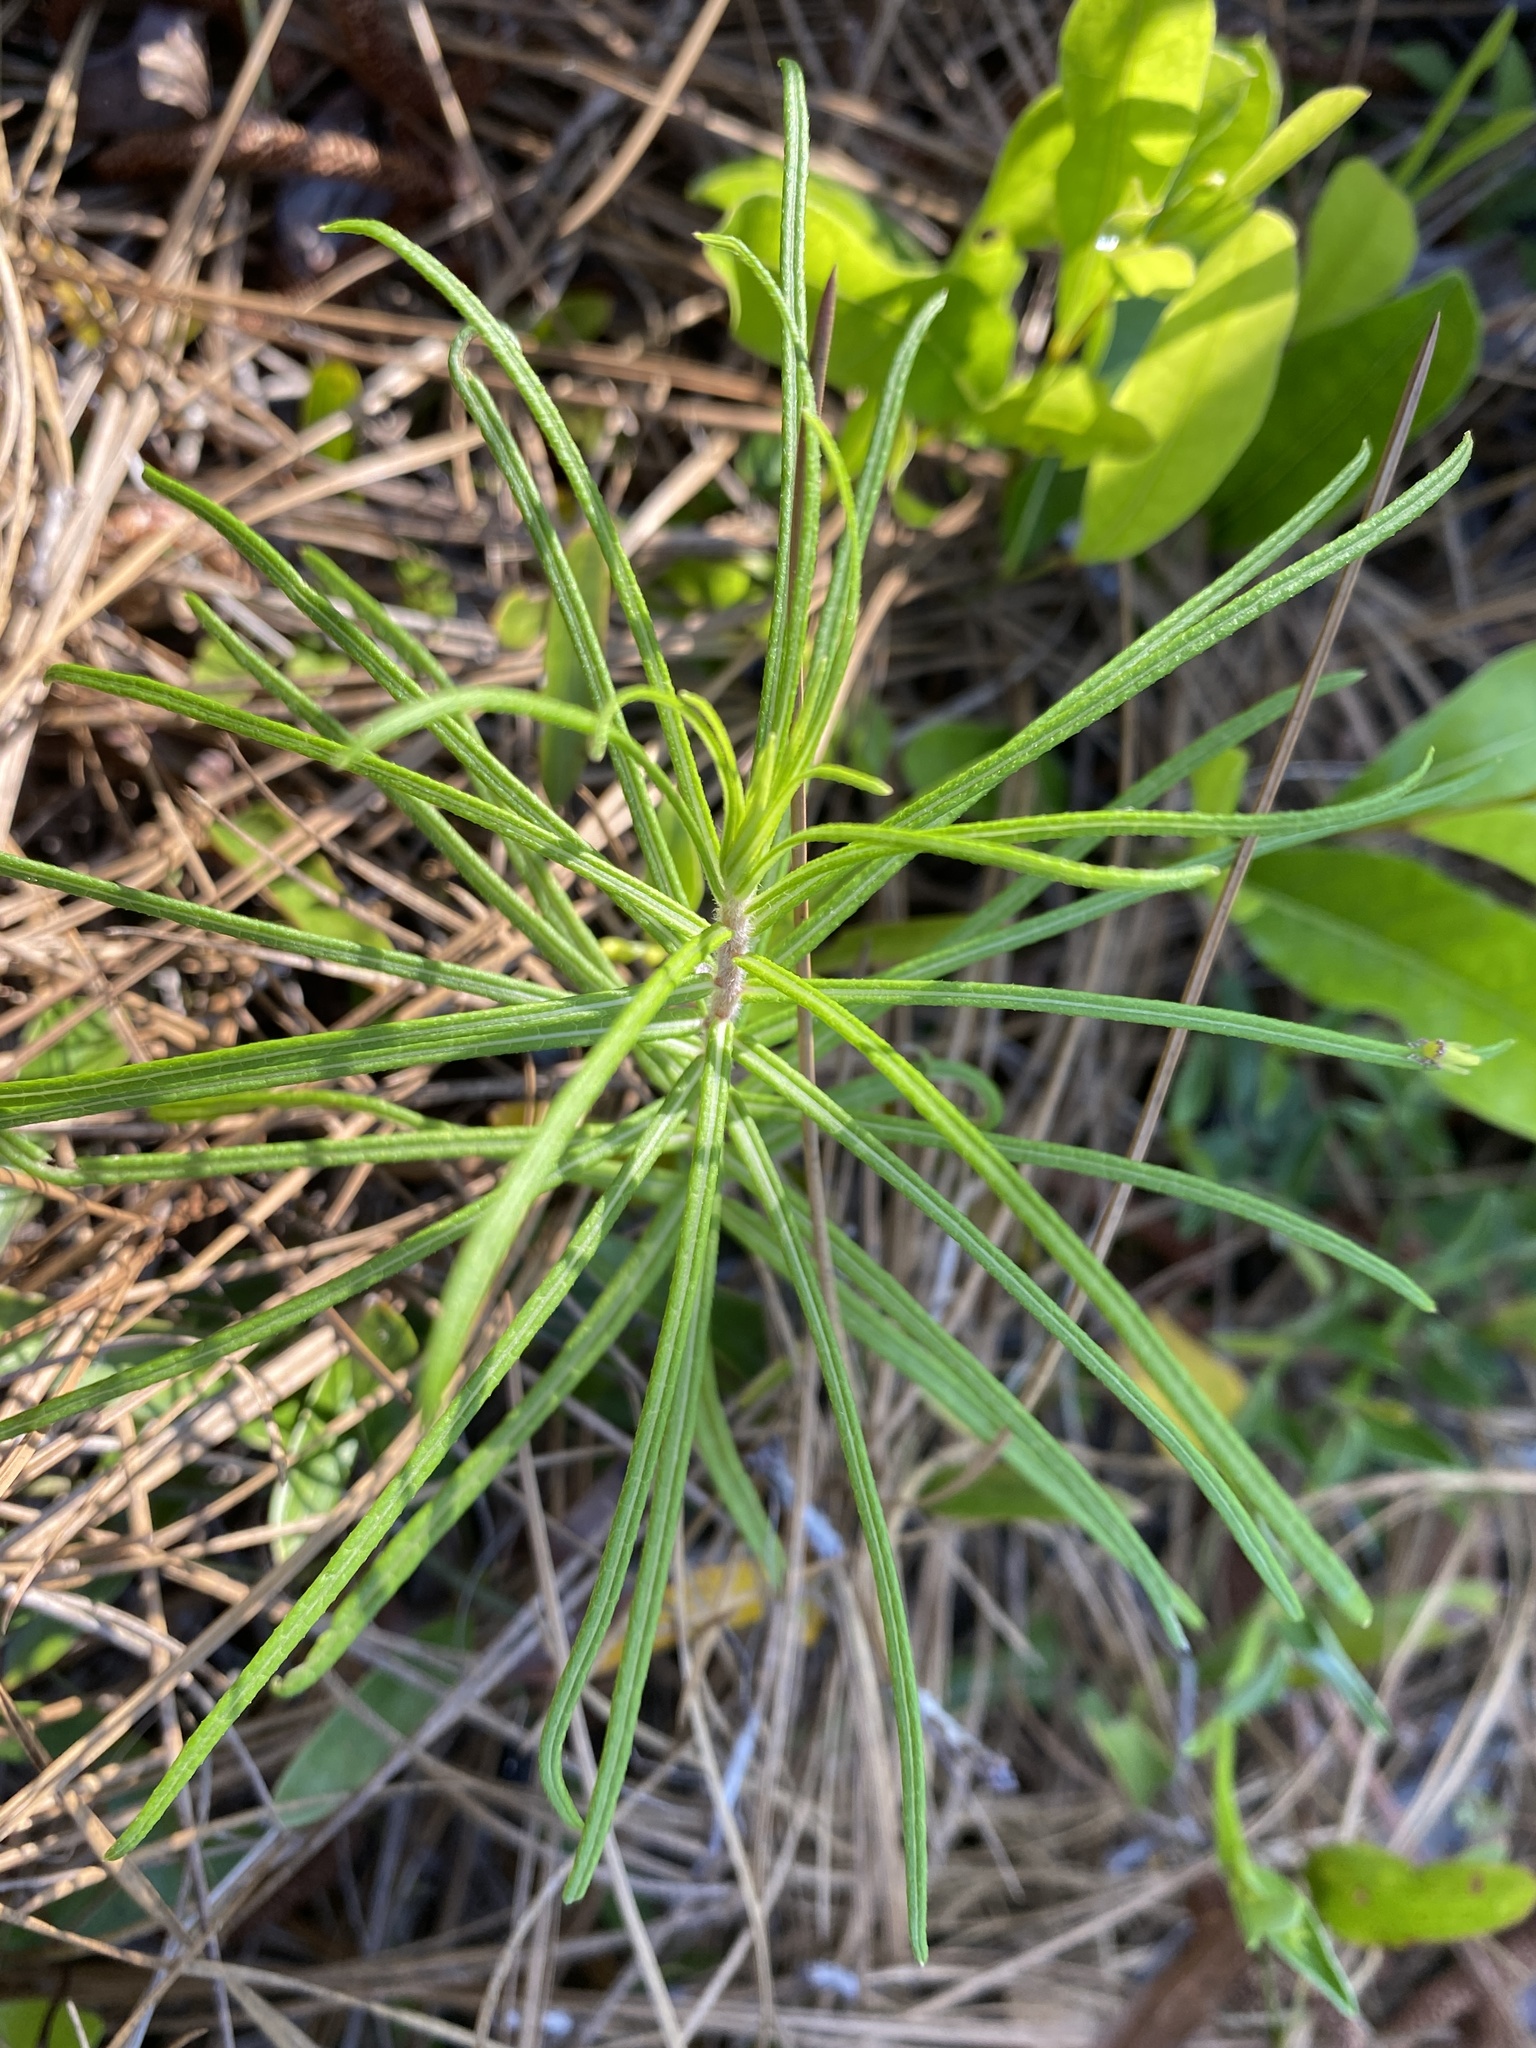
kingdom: Plantae
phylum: Tracheophyta
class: Magnoliopsida
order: Asterales
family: Asteraceae
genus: Vernonia
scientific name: Vernonia angustifolia
